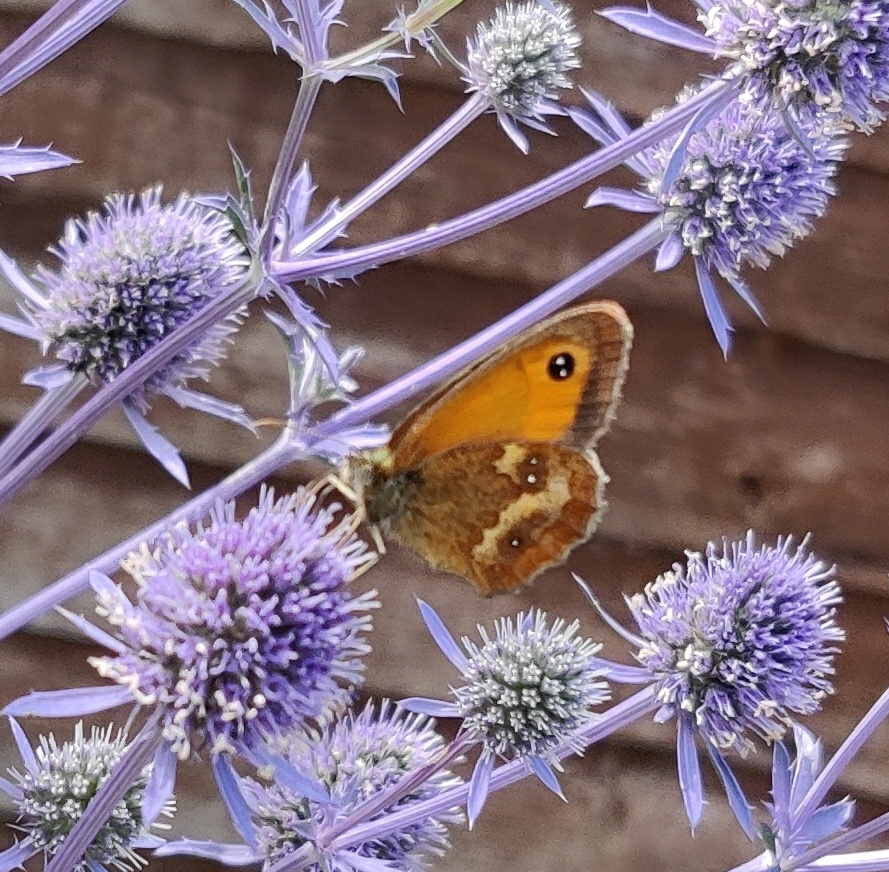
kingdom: Animalia
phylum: Arthropoda
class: Insecta
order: Lepidoptera
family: Nymphalidae
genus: Pyronia
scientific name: Pyronia tithonus
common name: Gatekeeper
